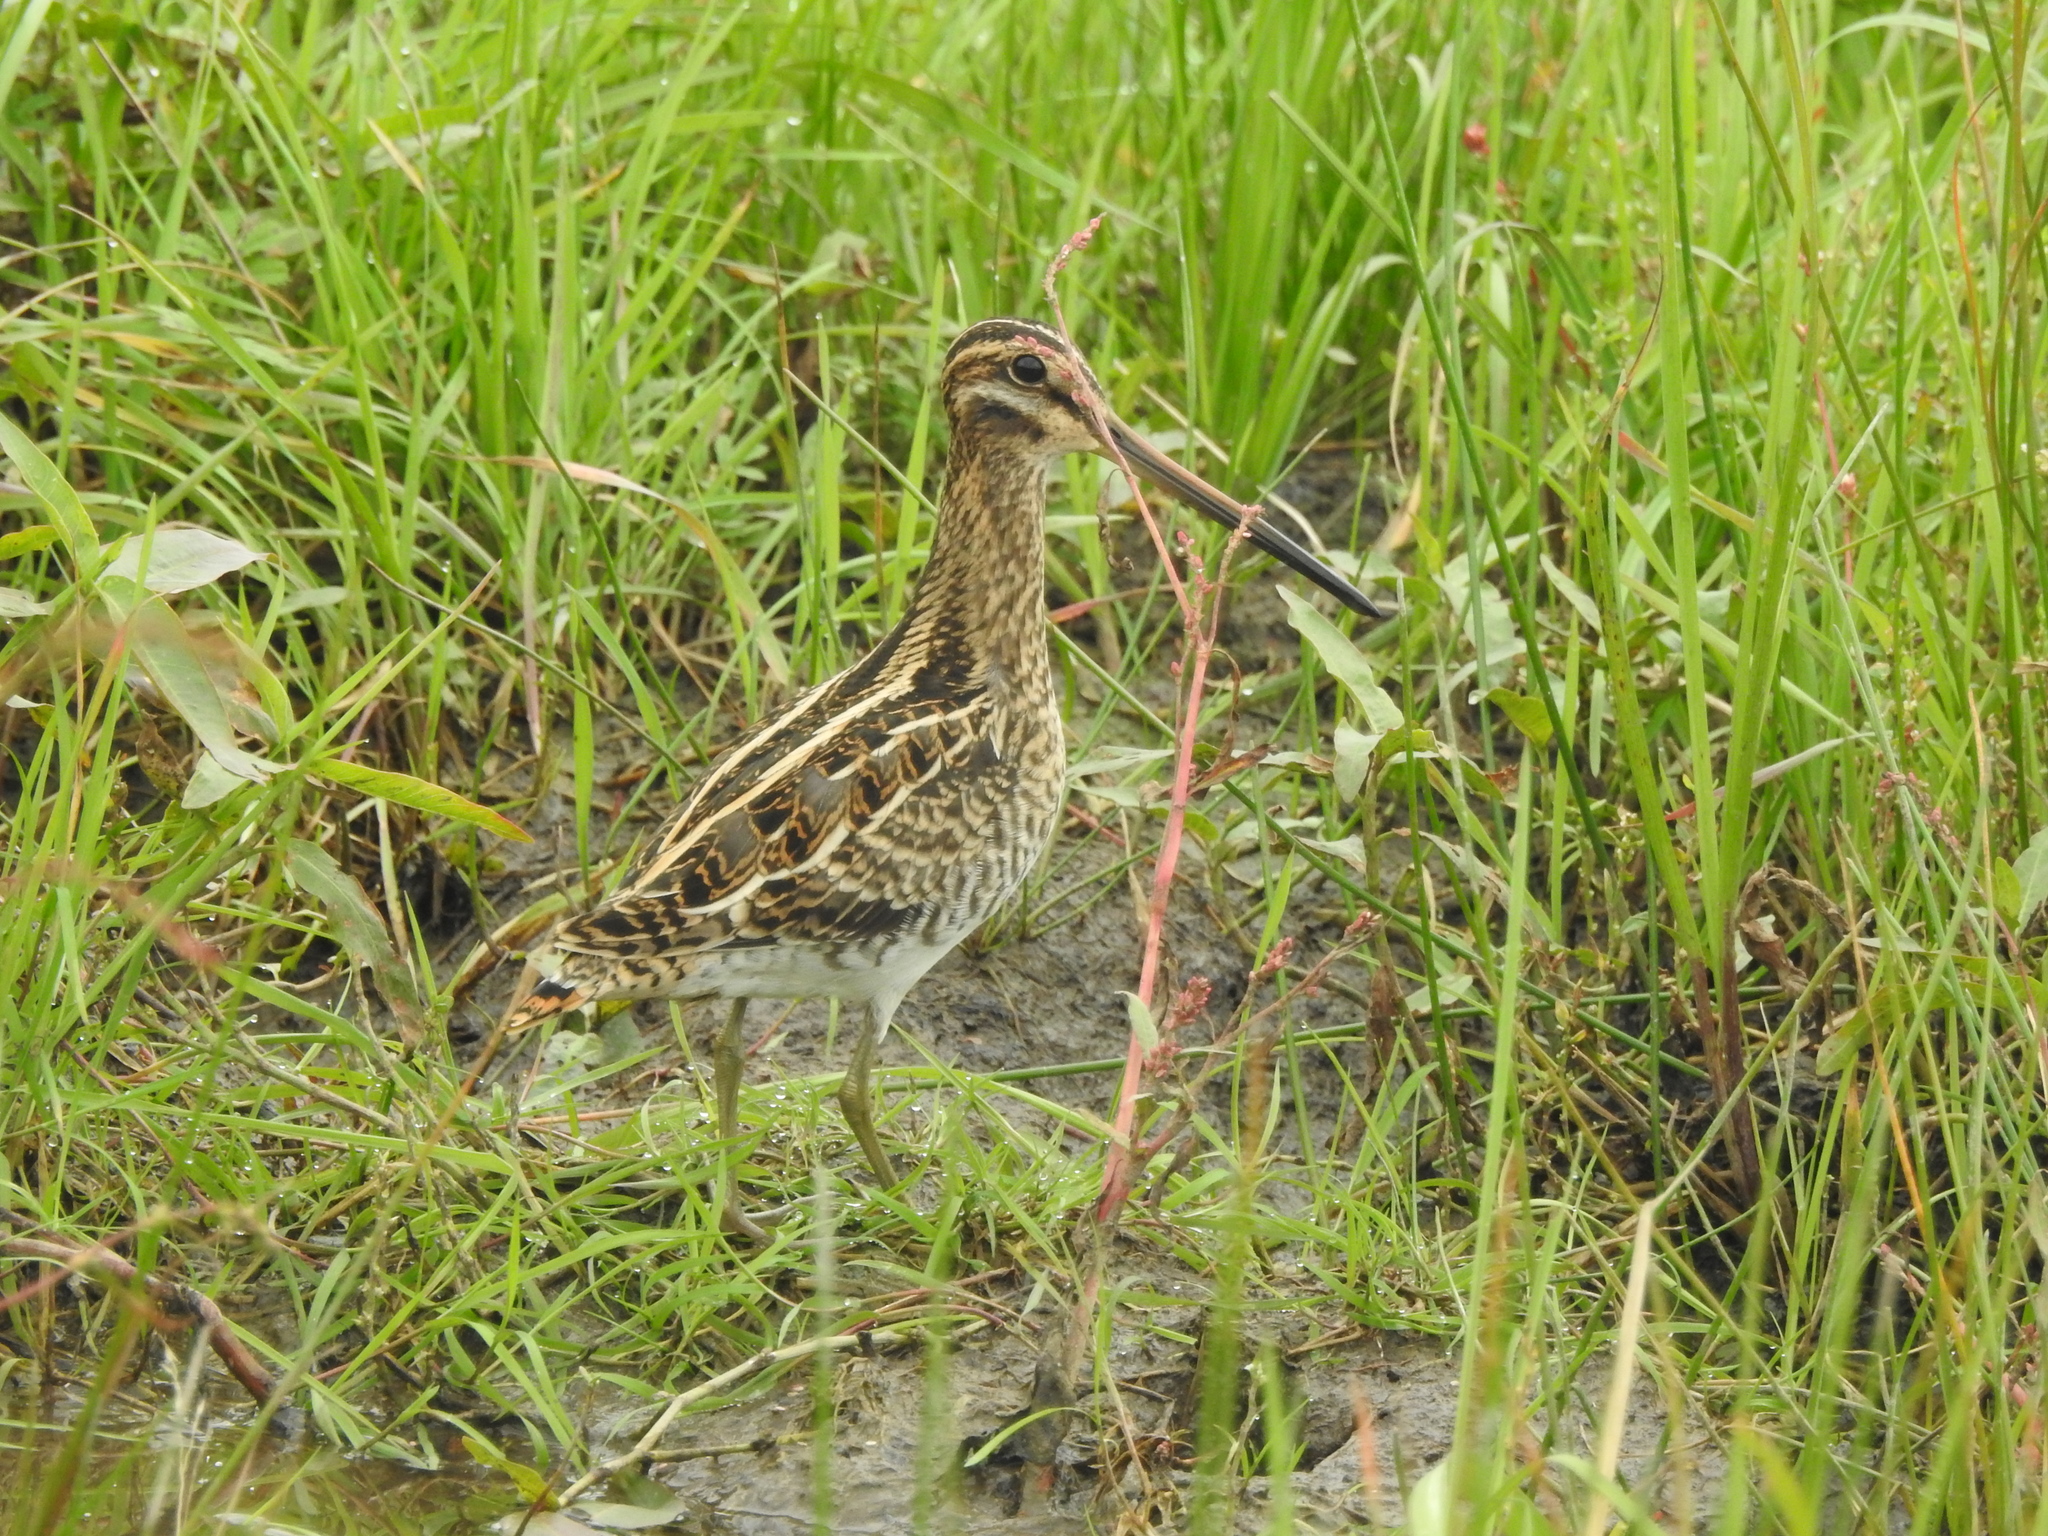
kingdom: Animalia
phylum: Chordata
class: Aves
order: Charadriiformes
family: Scolopacidae
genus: Gallinago
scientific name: Gallinago gallinago
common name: Common snipe
